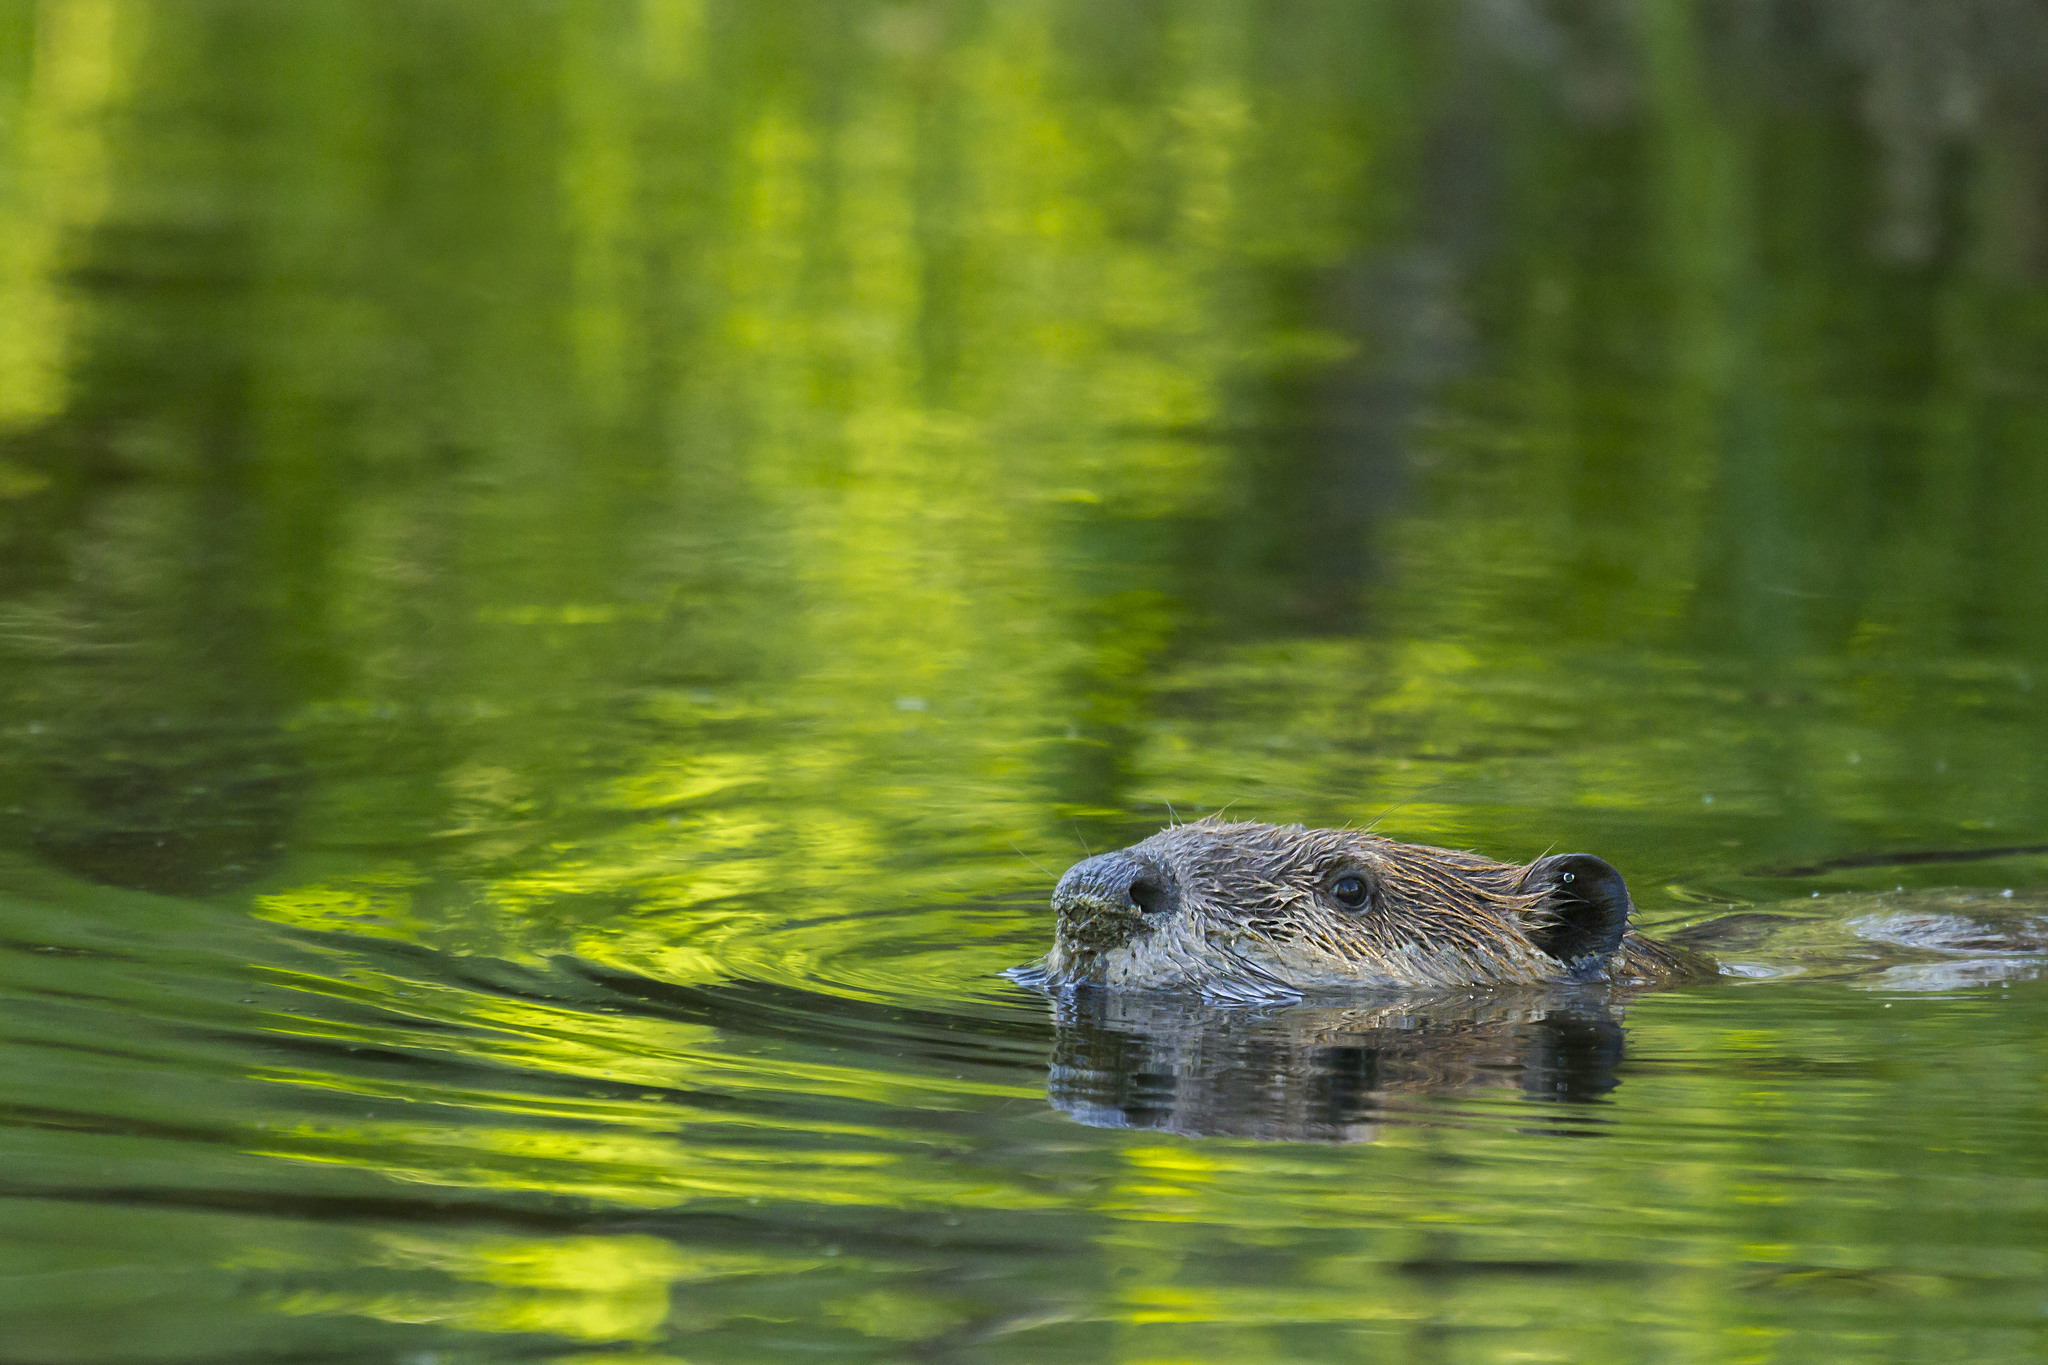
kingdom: Animalia
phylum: Chordata
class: Mammalia
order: Rodentia
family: Castoridae
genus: Castor
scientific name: Castor canadensis
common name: American beaver
